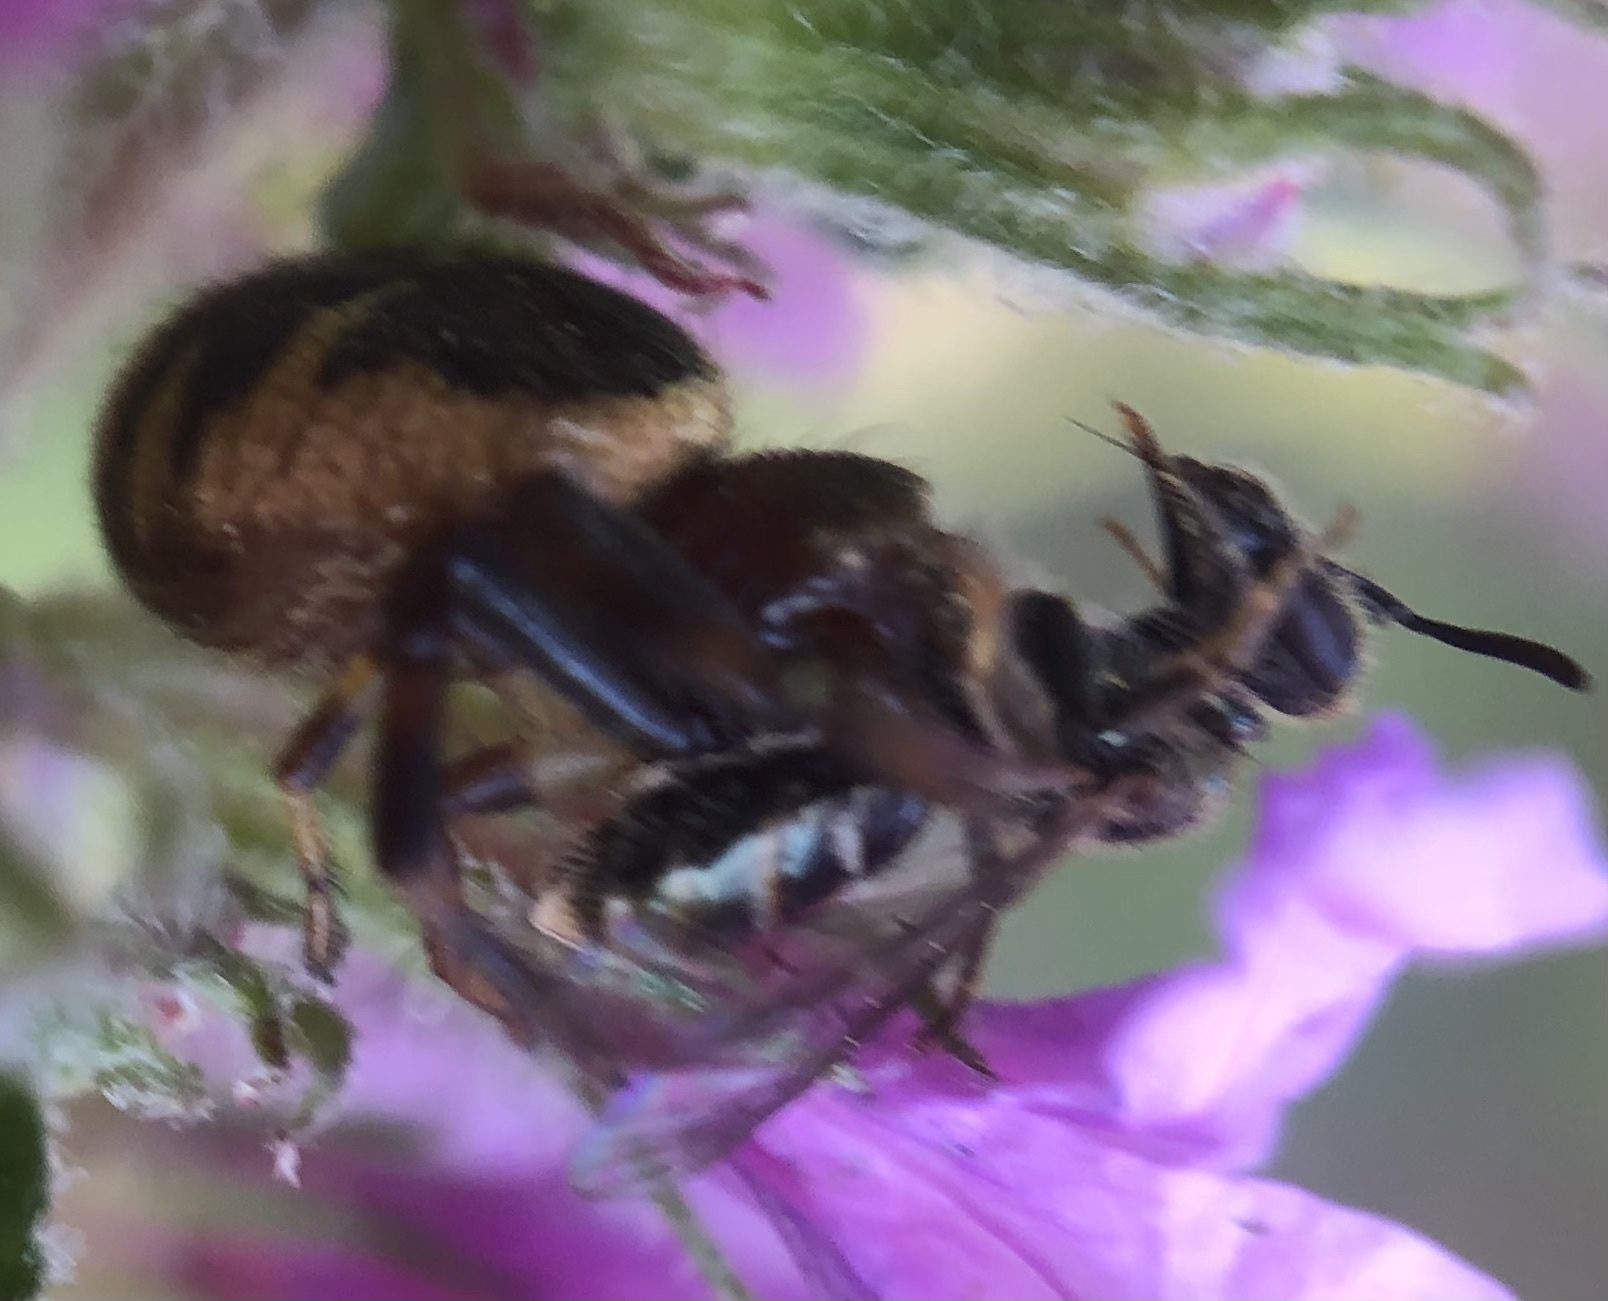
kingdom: Animalia
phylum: Arthropoda
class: Arachnida
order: Araneae
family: Thomisidae
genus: Synema
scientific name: Synema globosum
